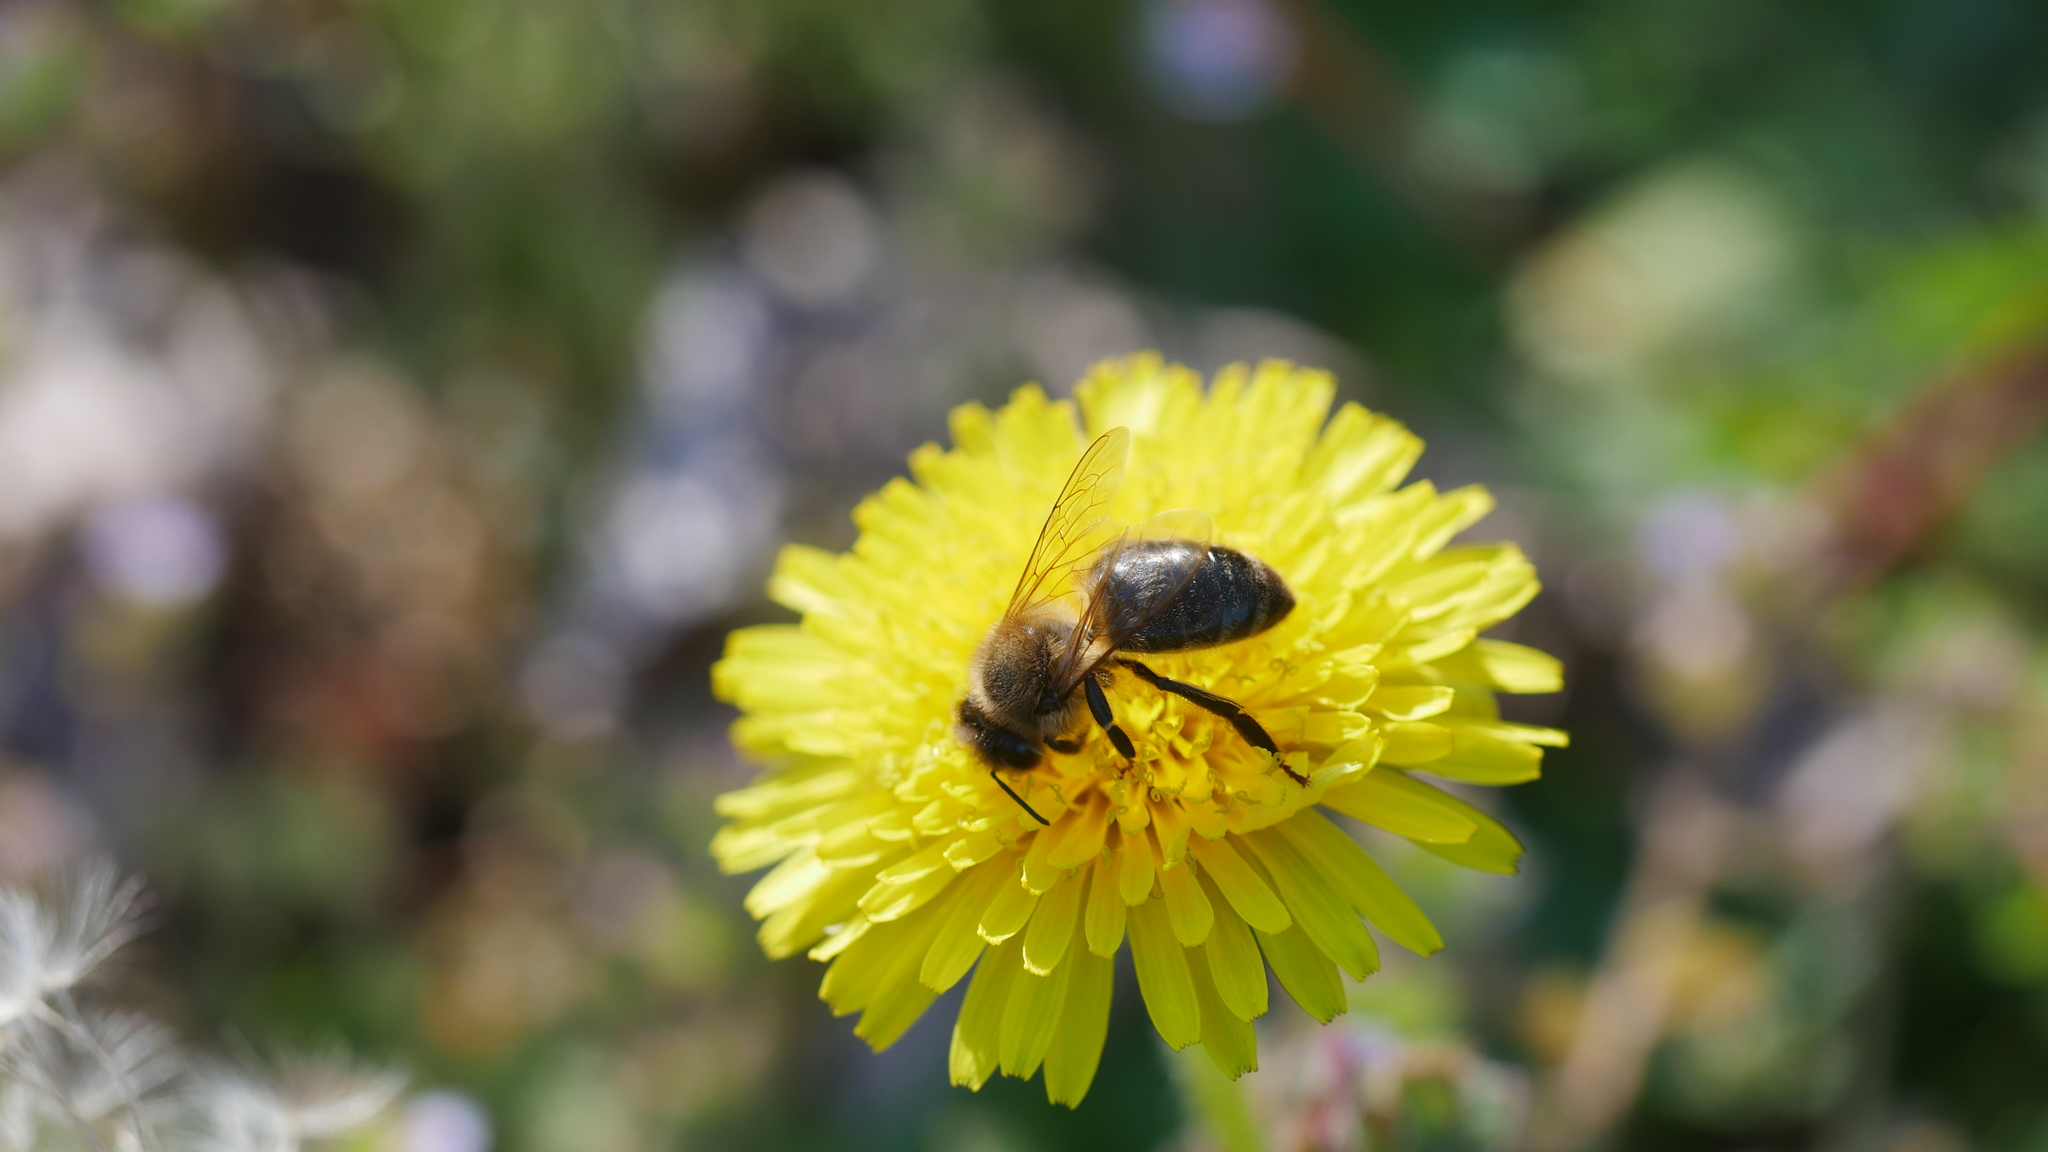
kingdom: Animalia
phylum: Arthropoda
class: Insecta
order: Hymenoptera
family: Apidae
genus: Apis
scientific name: Apis mellifera
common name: Honey bee
